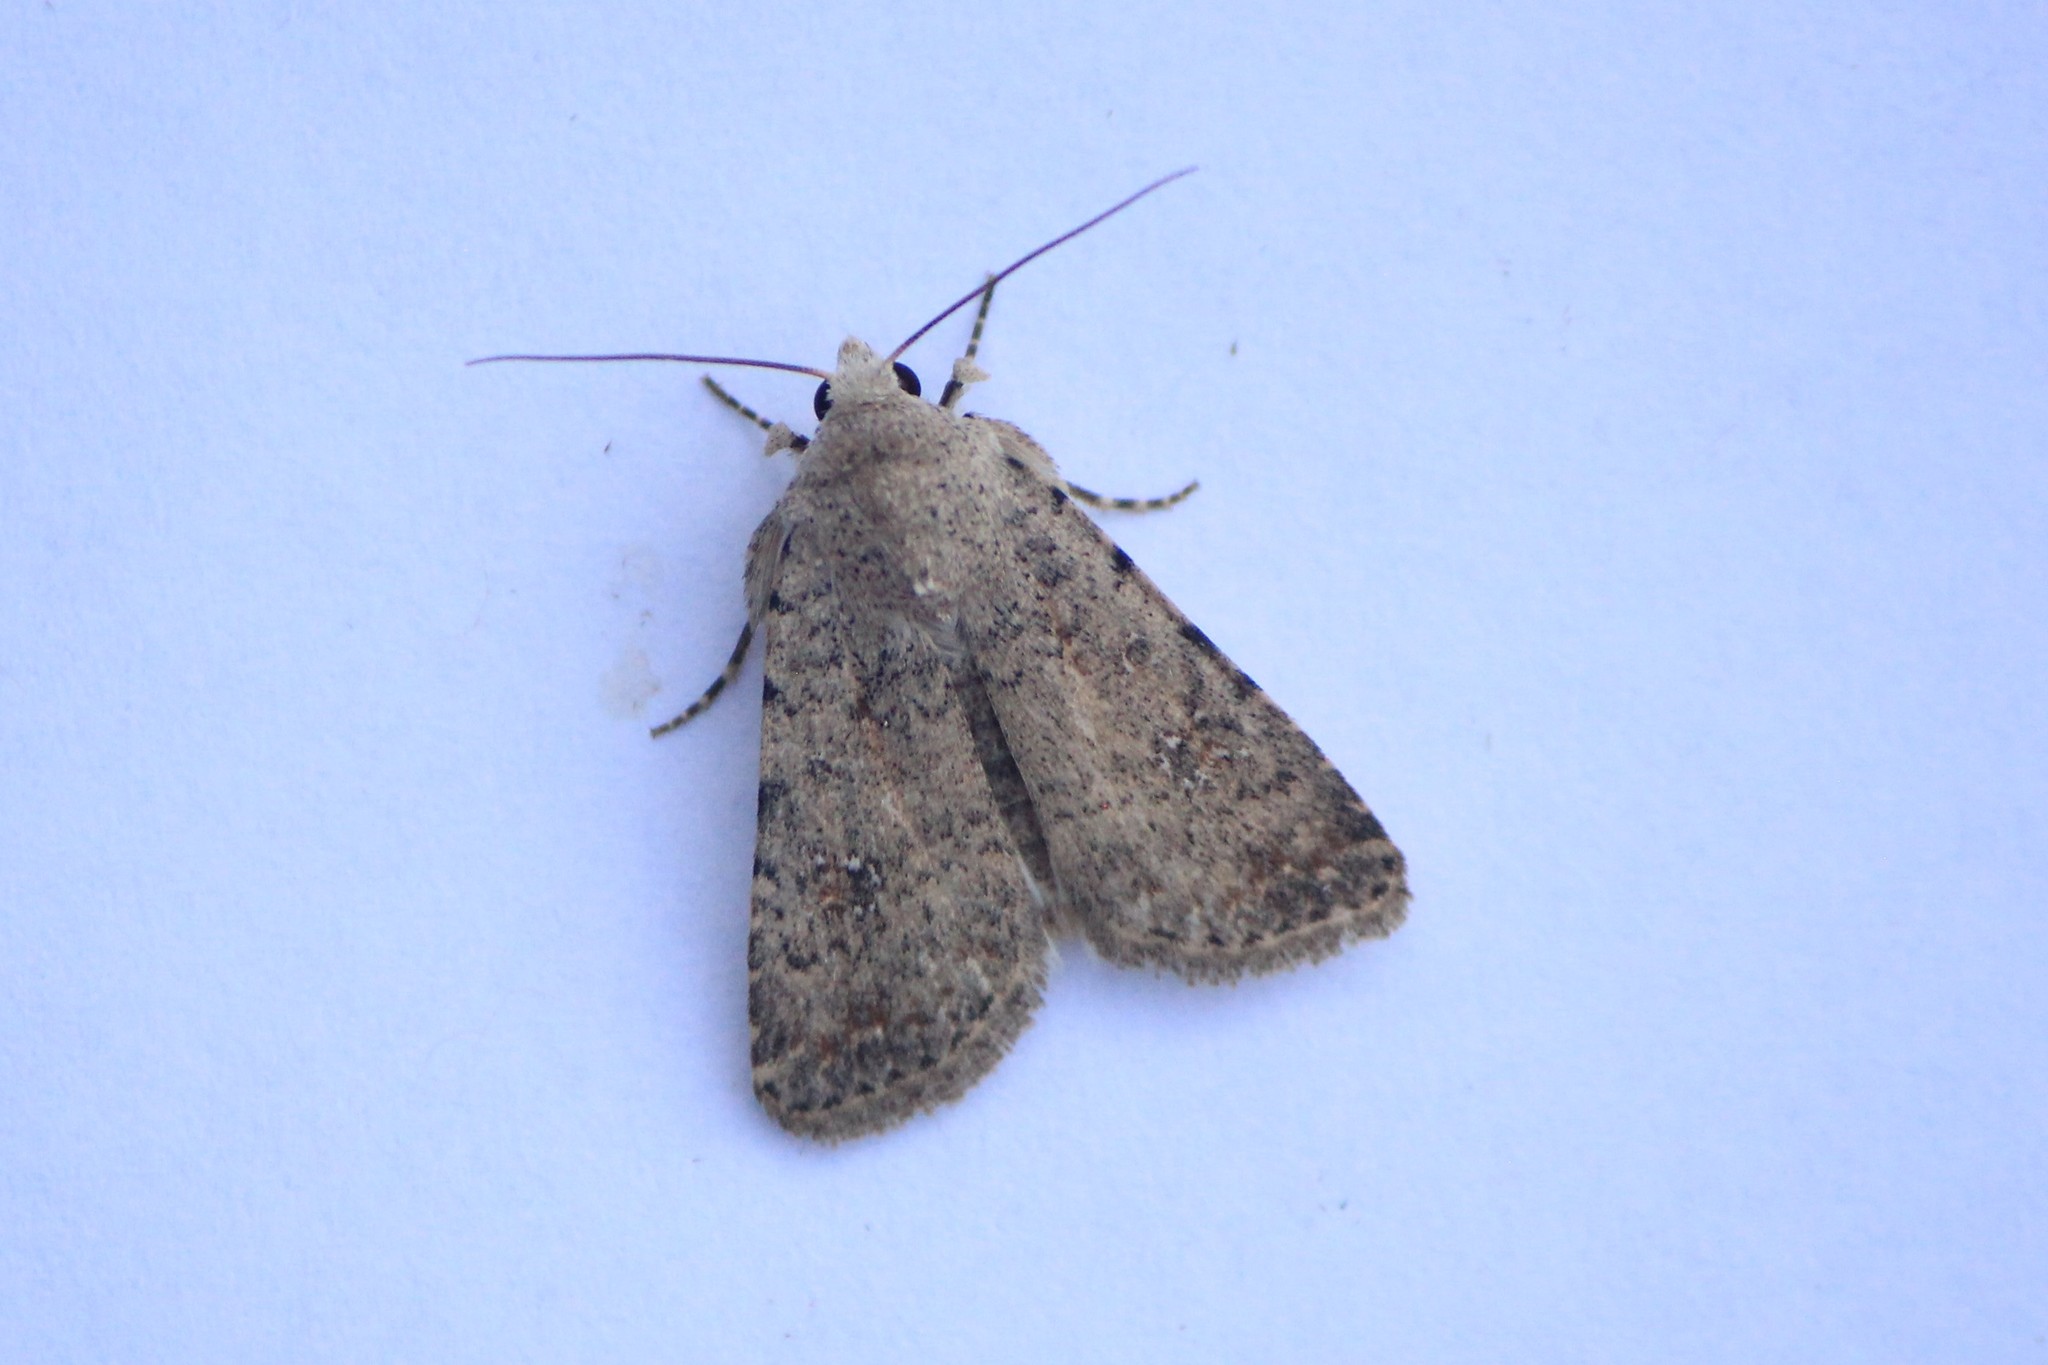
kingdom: Animalia
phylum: Arthropoda
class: Insecta
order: Lepidoptera
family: Noctuidae
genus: Caradrina
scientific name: Caradrina multifera
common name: Speckled rustic
